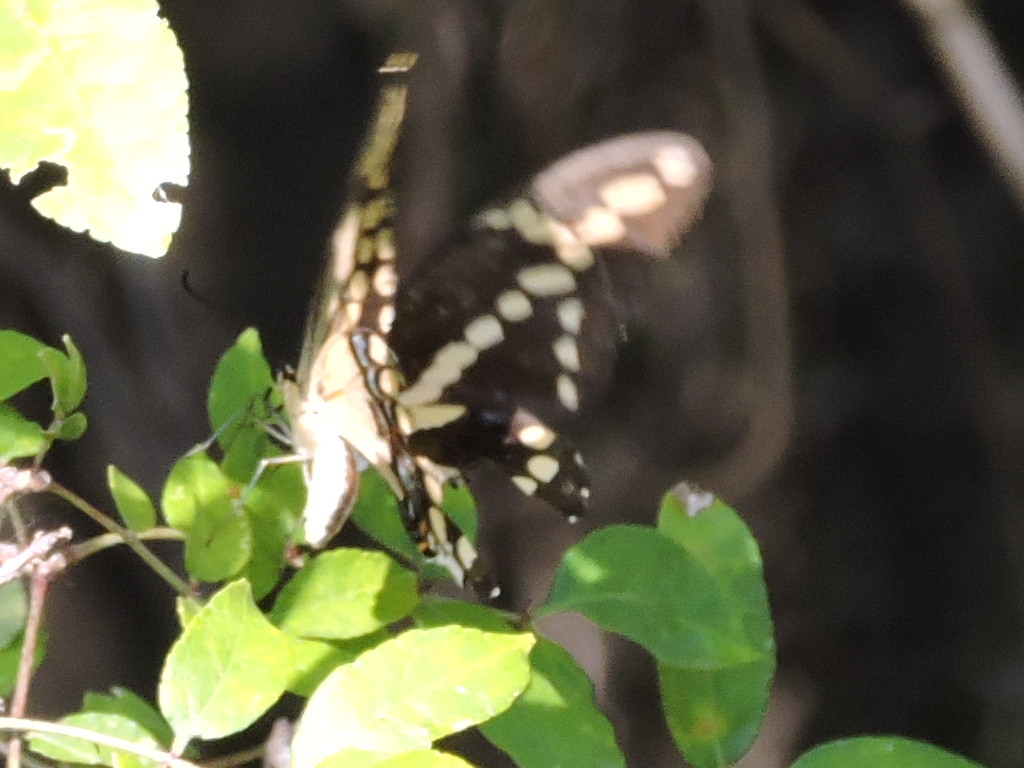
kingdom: Animalia
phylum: Arthropoda
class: Insecta
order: Lepidoptera
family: Papilionidae
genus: Papilio
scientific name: Papilio cresphontes
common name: Giant swallowtail
